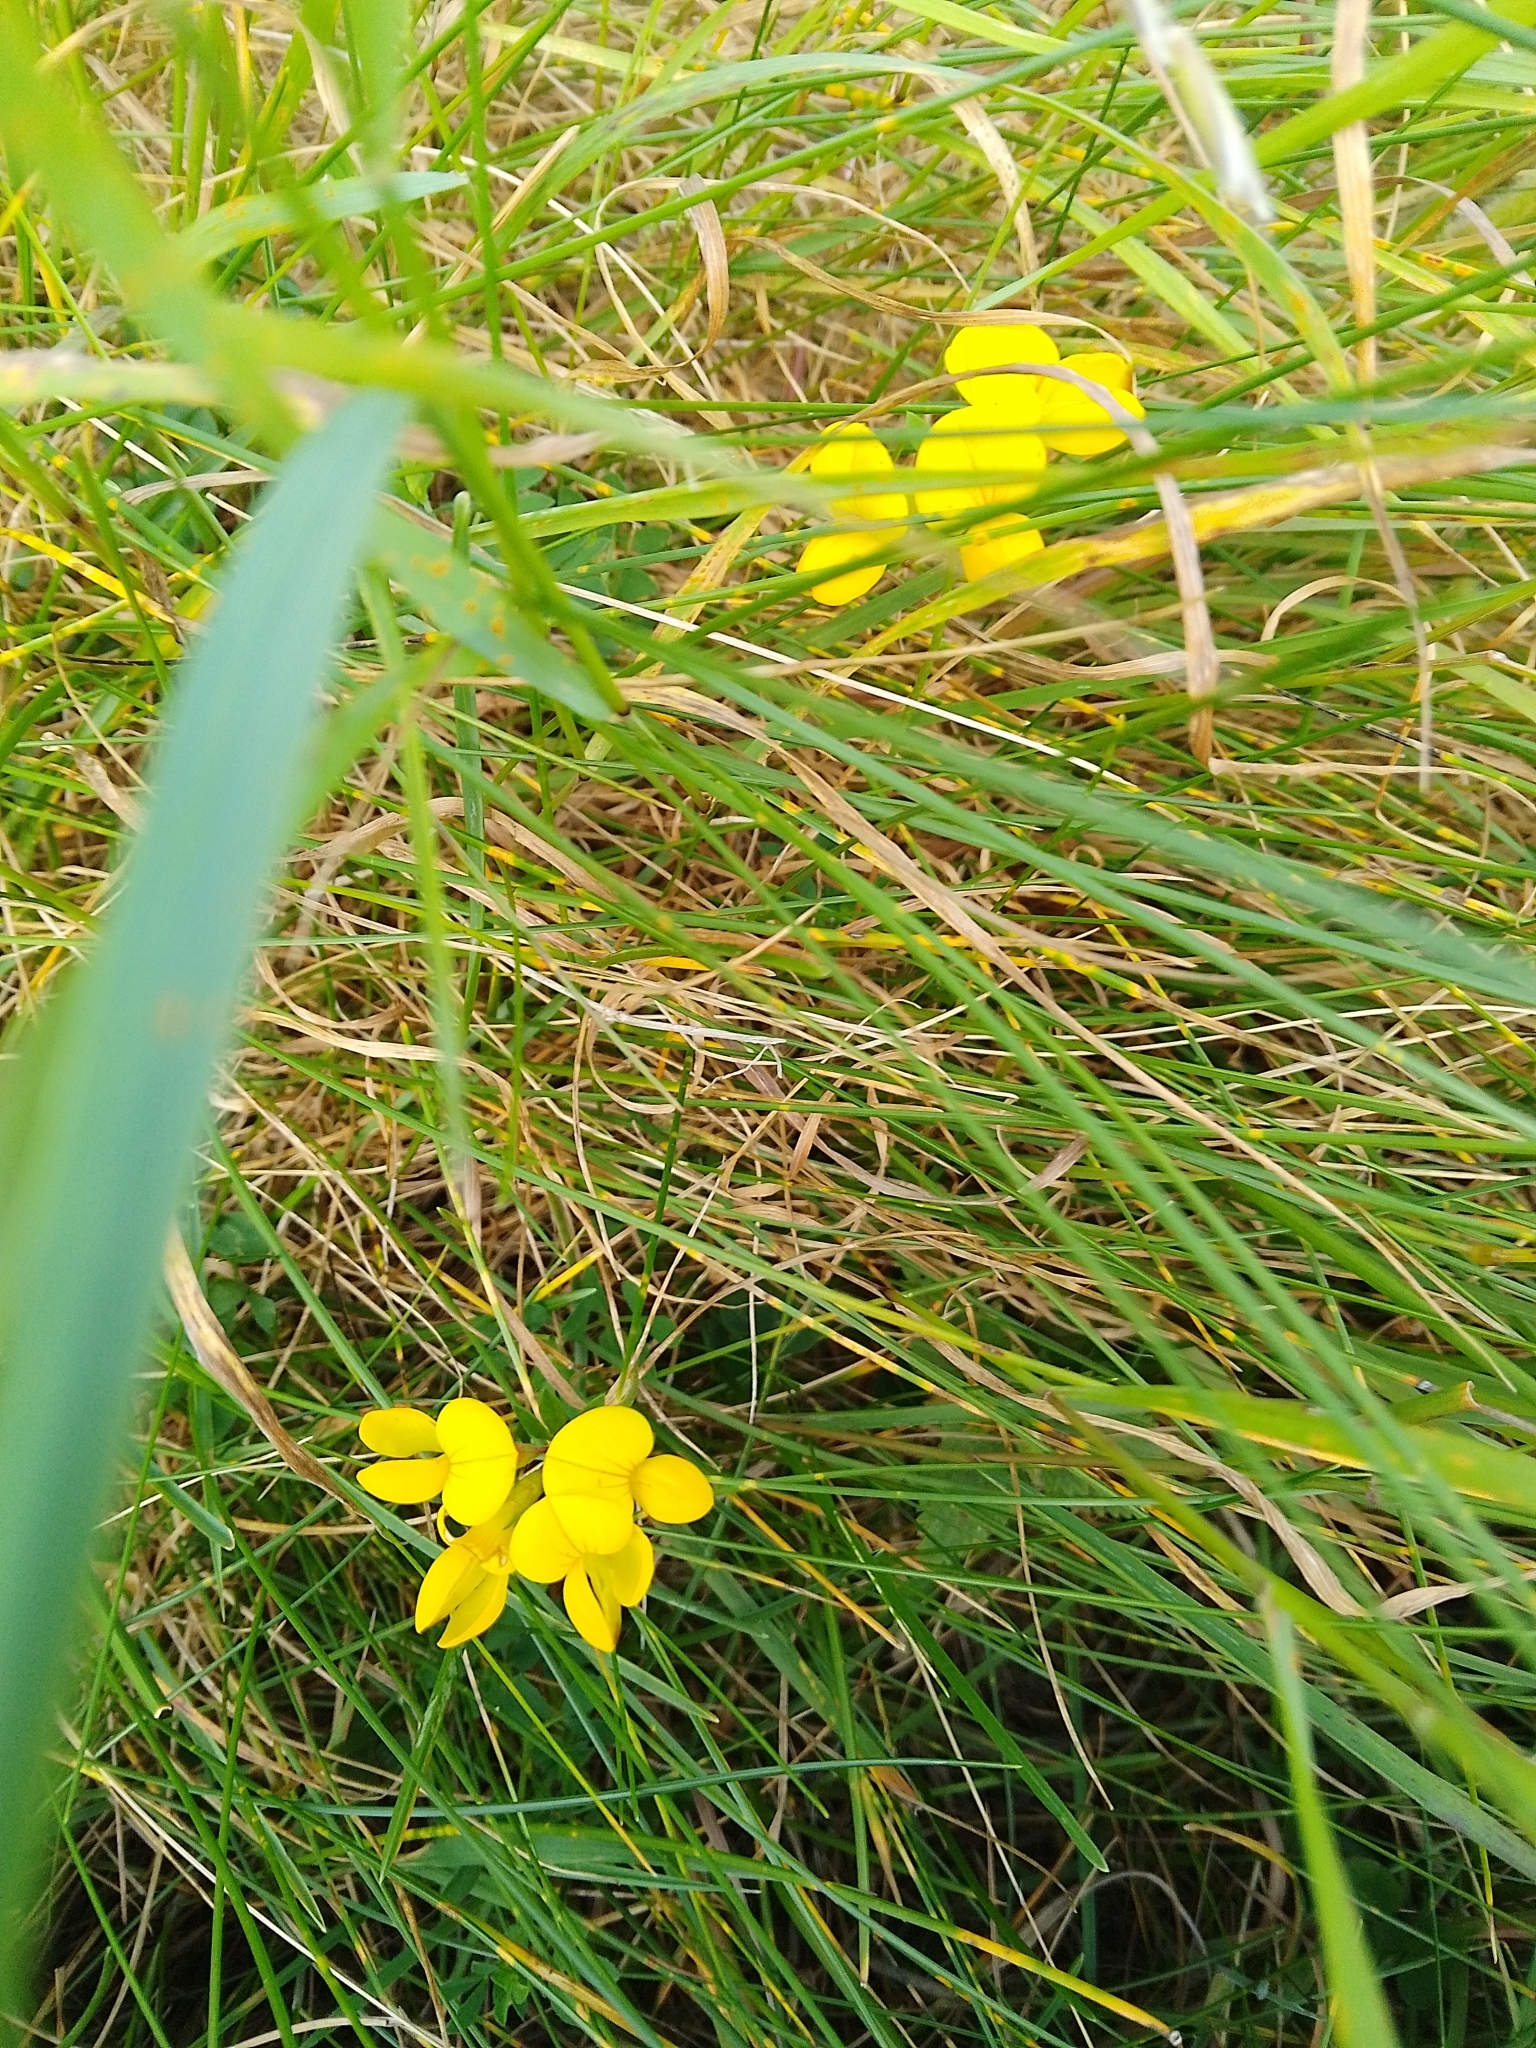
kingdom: Plantae
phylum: Tracheophyta
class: Magnoliopsida
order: Fabales
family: Fabaceae
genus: Lotus
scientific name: Lotus corniculatus
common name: Common bird's-foot-trefoil
